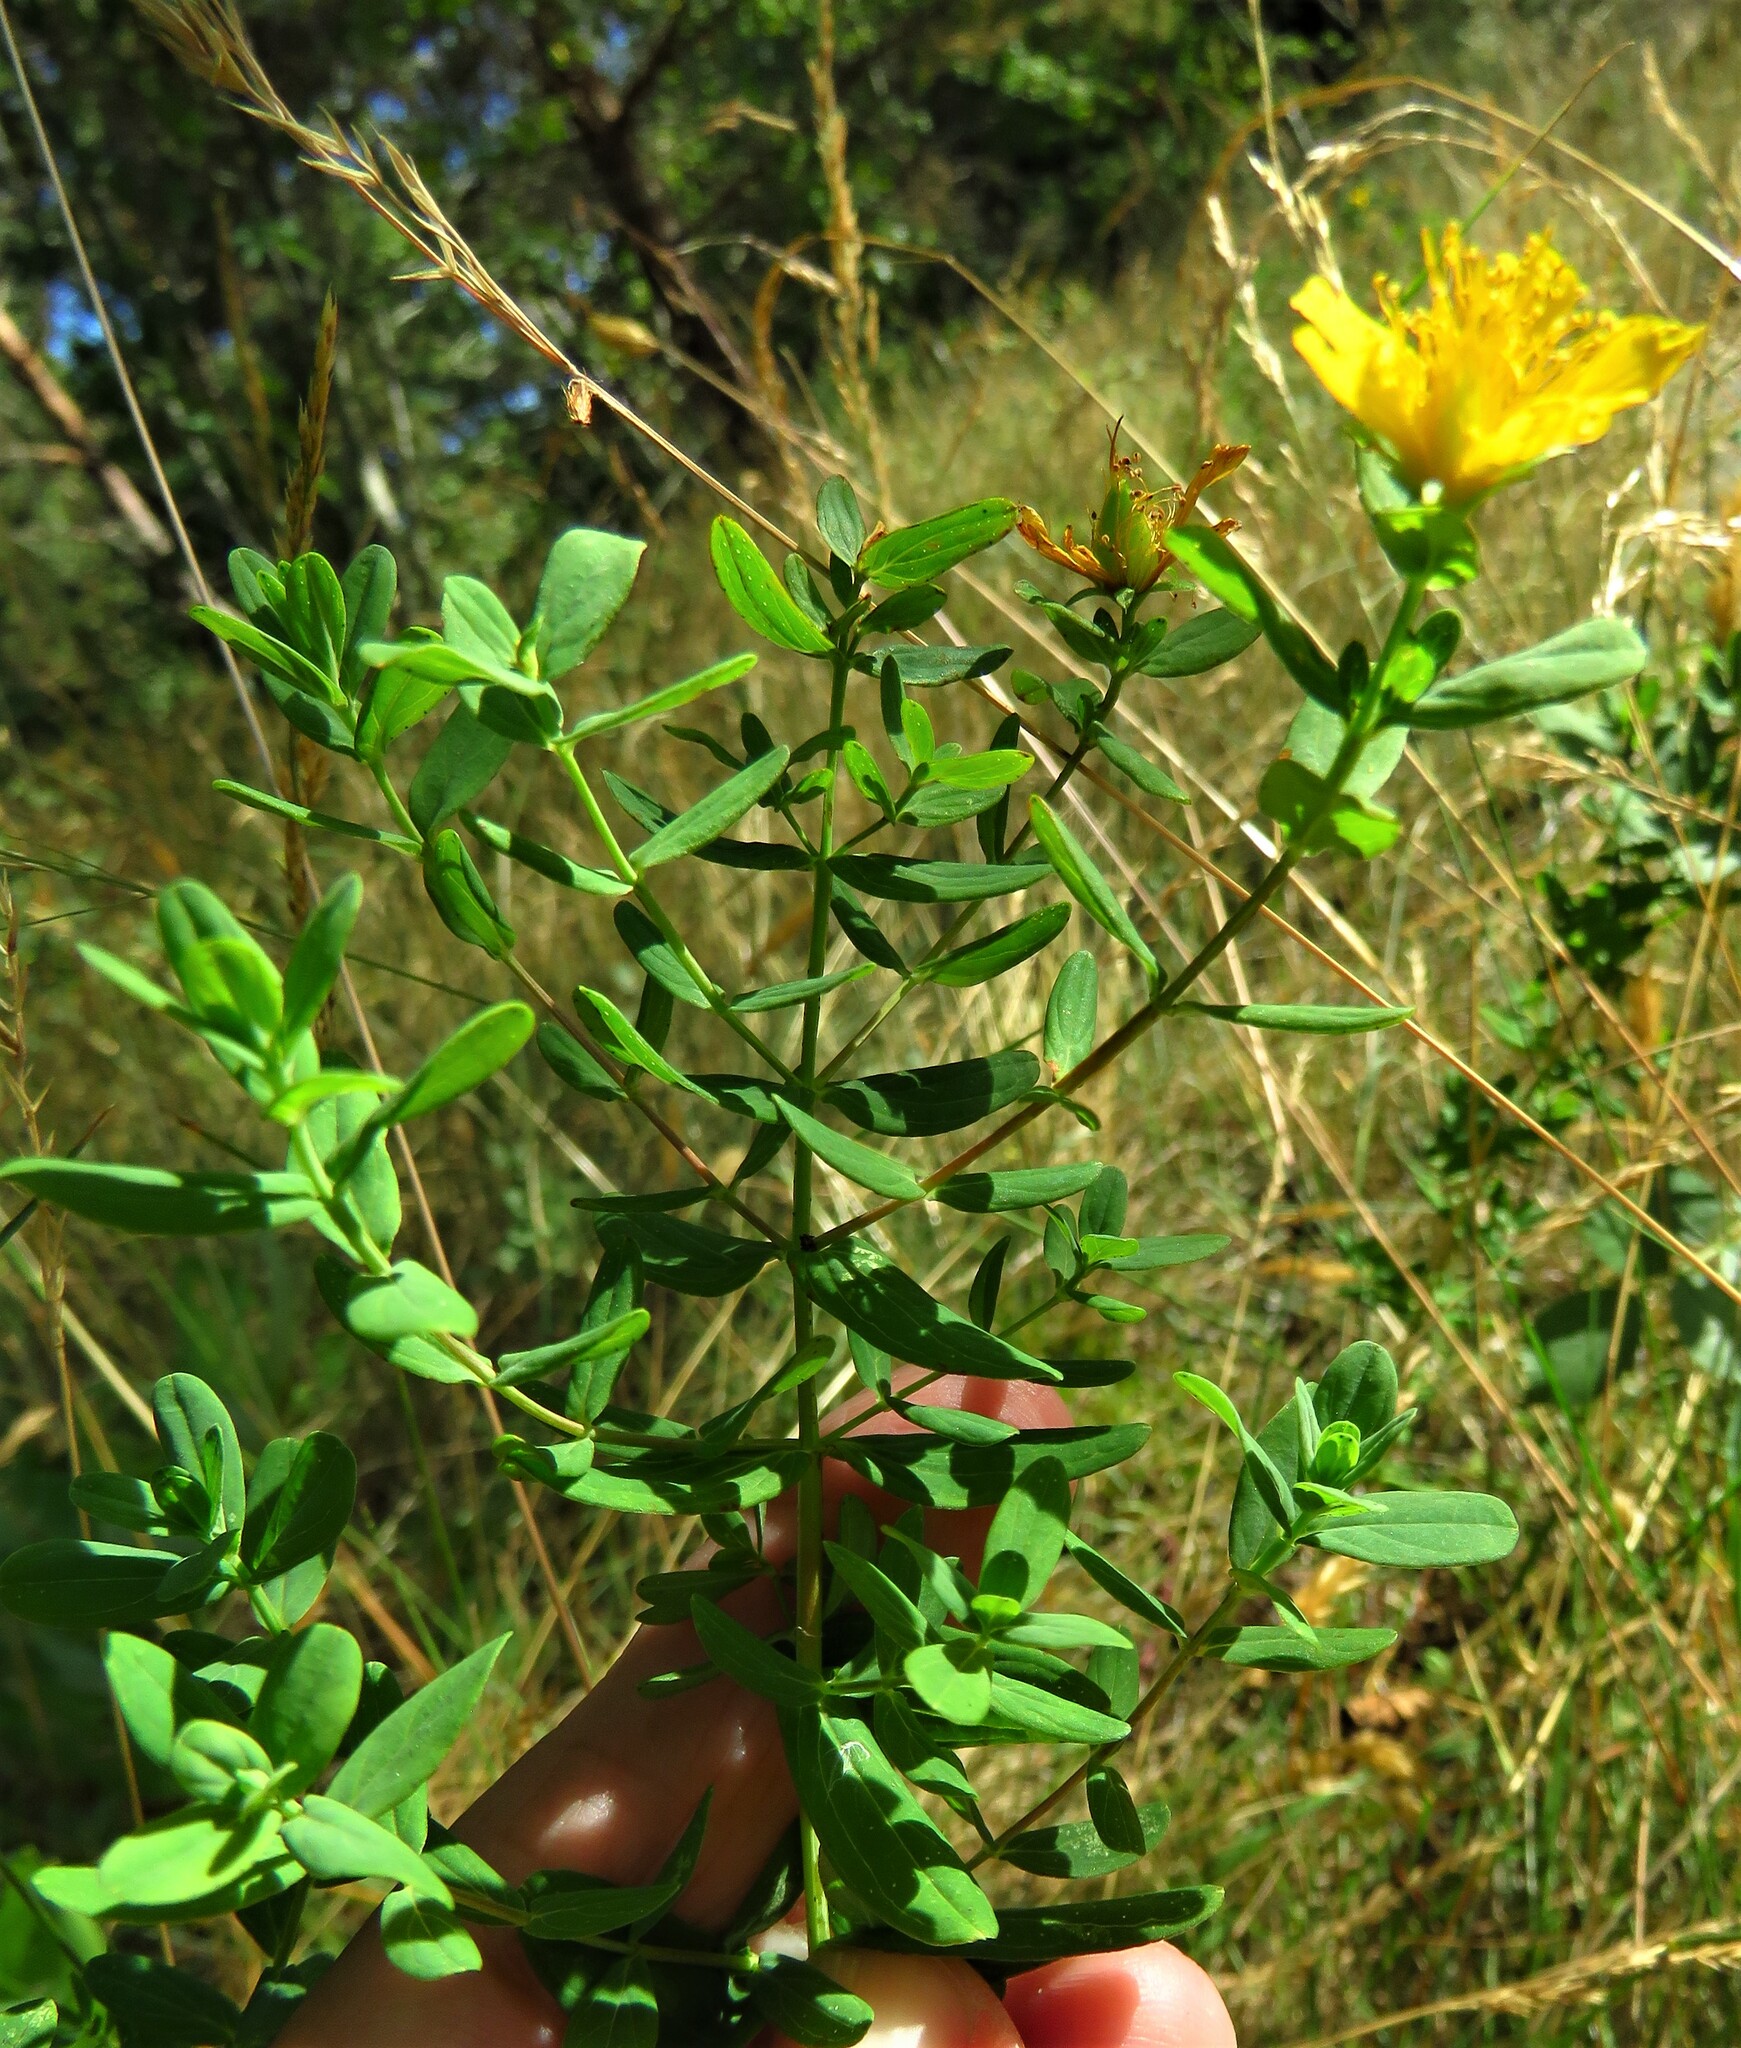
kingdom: Plantae
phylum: Tracheophyta
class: Magnoliopsida
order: Malpighiales
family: Hypericaceae
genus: Hypericum
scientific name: Hypericum perforatum
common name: Common st. johnswort
